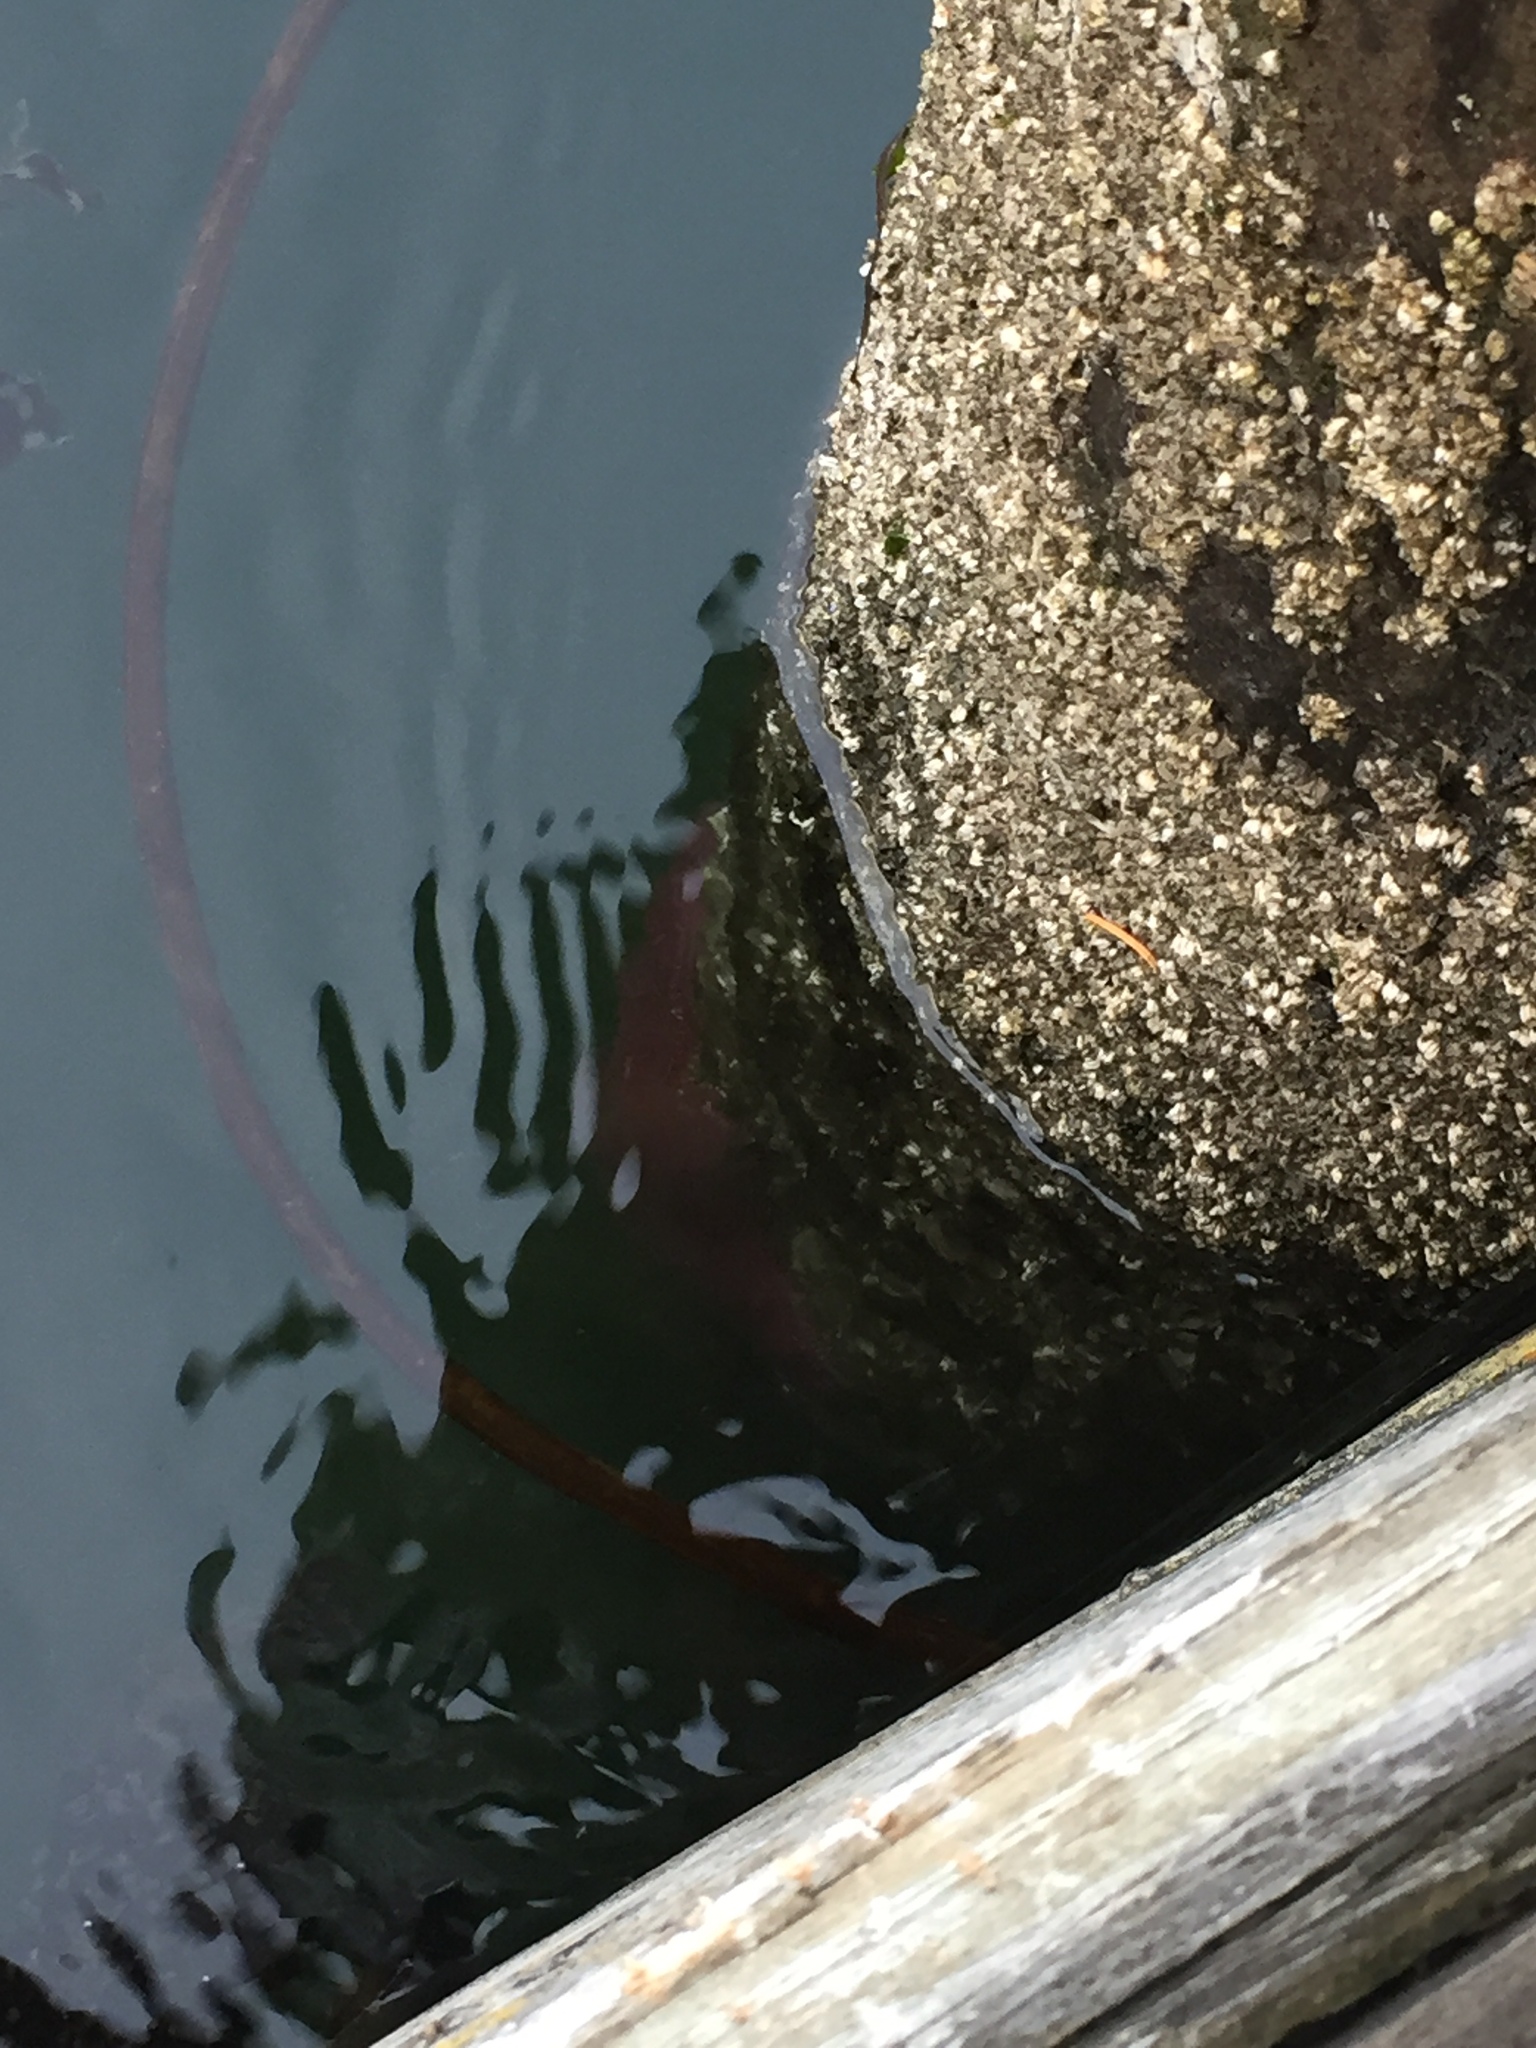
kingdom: Animalia
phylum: Echinodermata
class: Asteroidea
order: Forcipulatida
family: Asteriidae
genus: Pisaster
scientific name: Pisaster ochraceus
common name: Ochre stars
